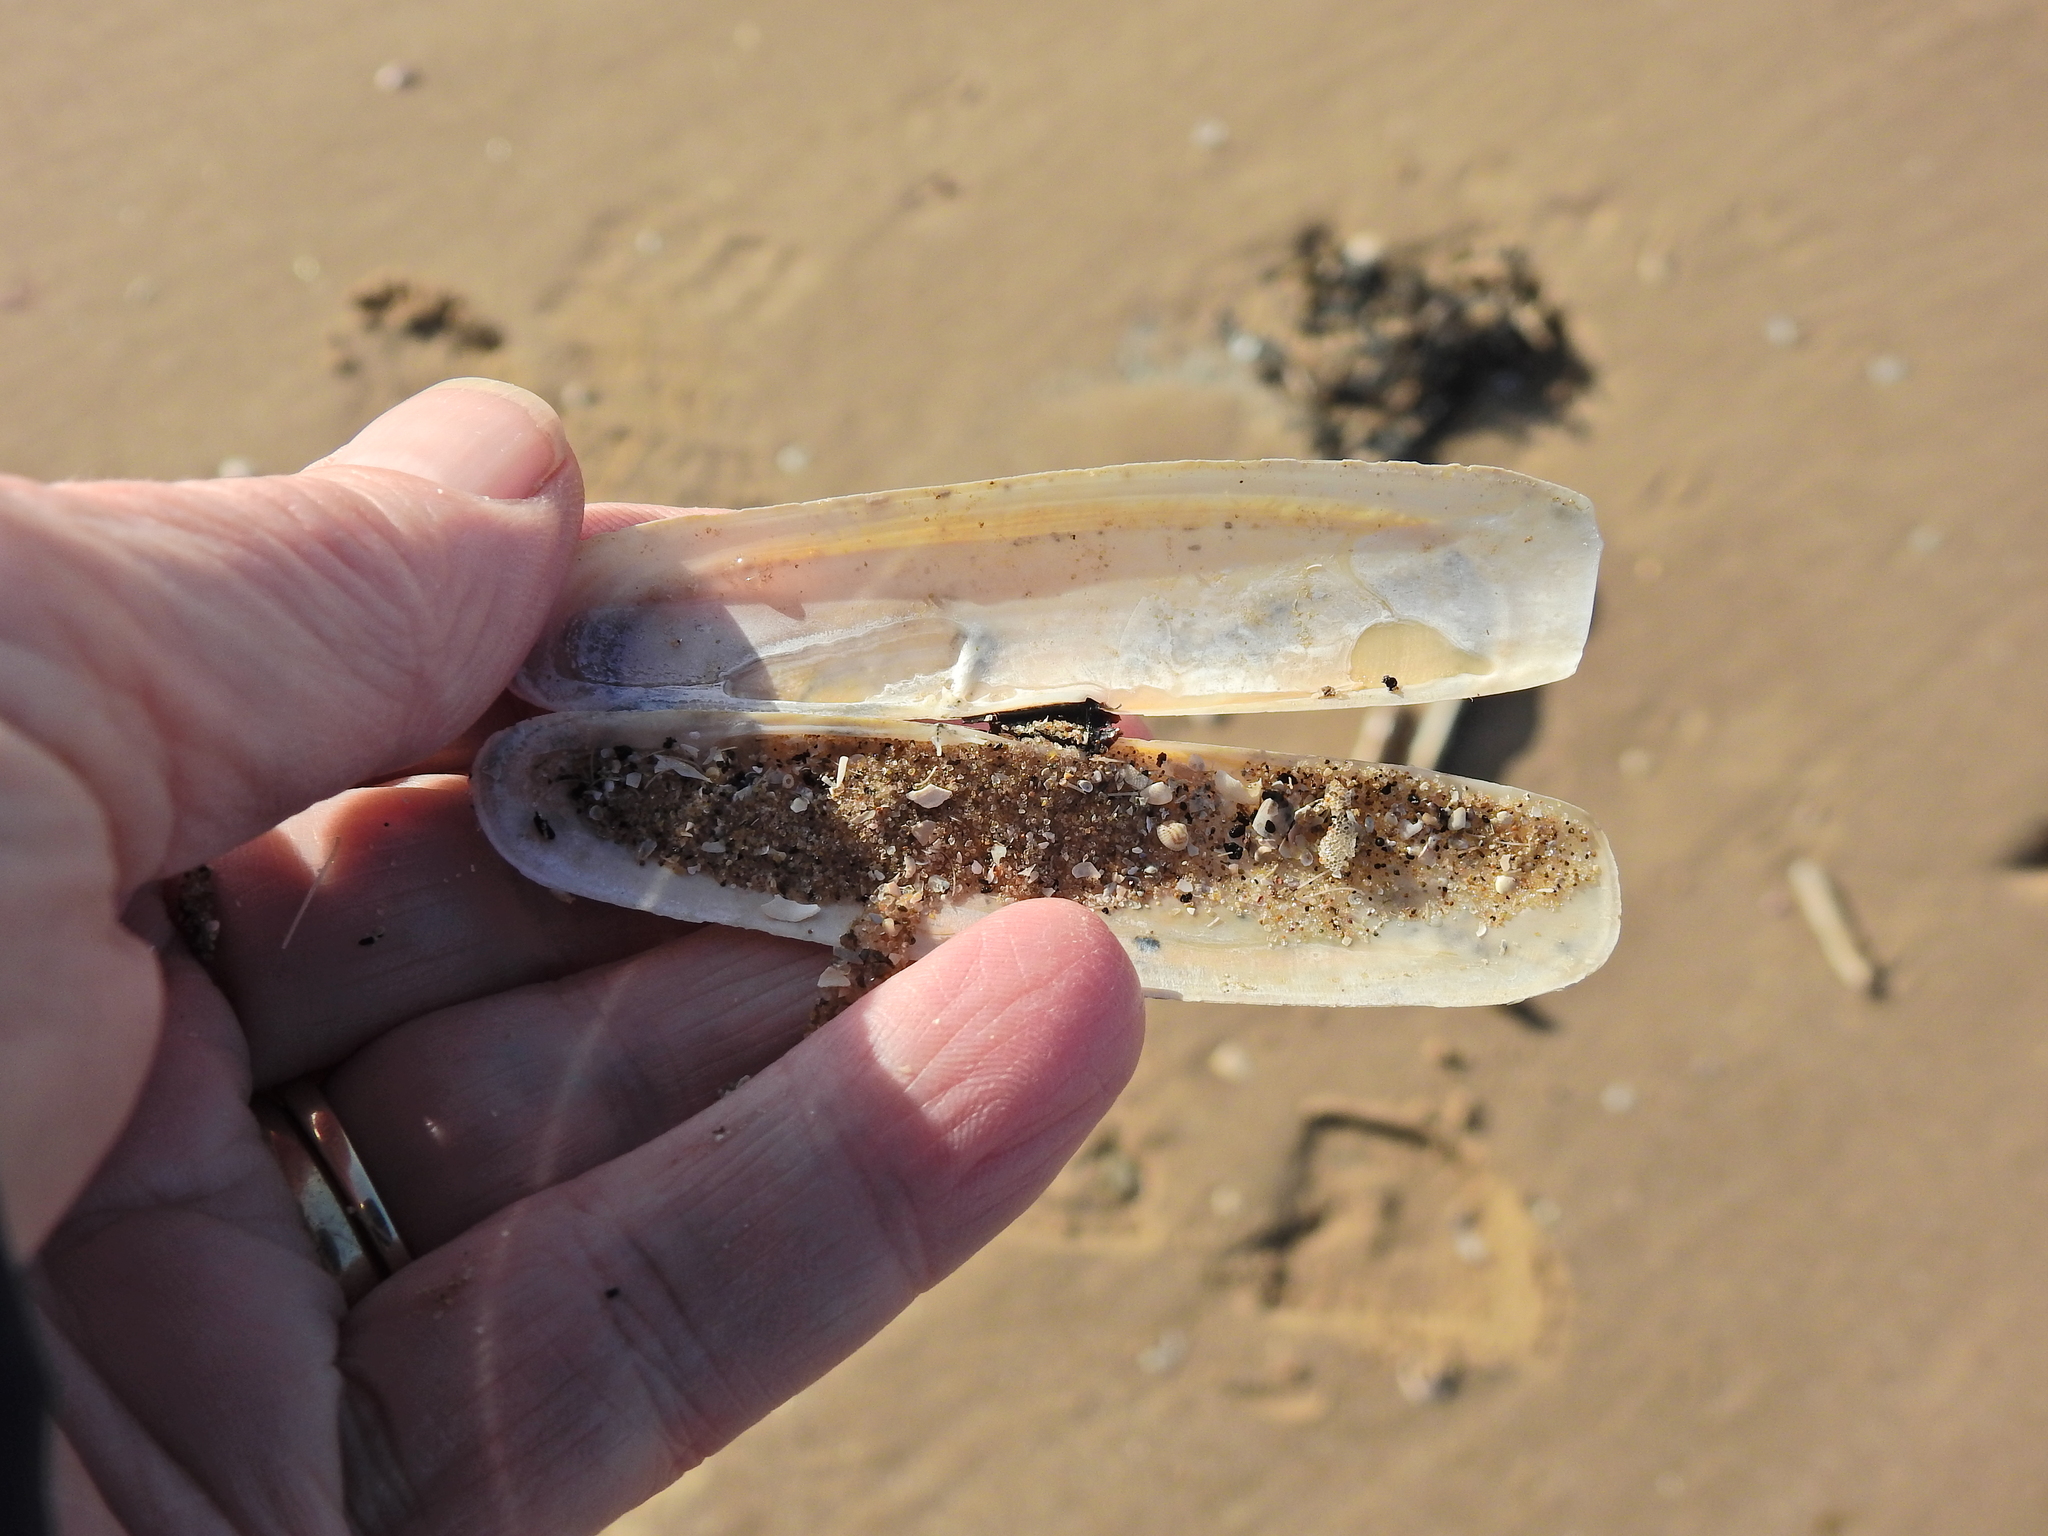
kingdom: Animalia
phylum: Mollusca
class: Bivalvia
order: Adapedonta
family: Pharidae
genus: Pharus
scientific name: Pharus legumen
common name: Bean razor clam
